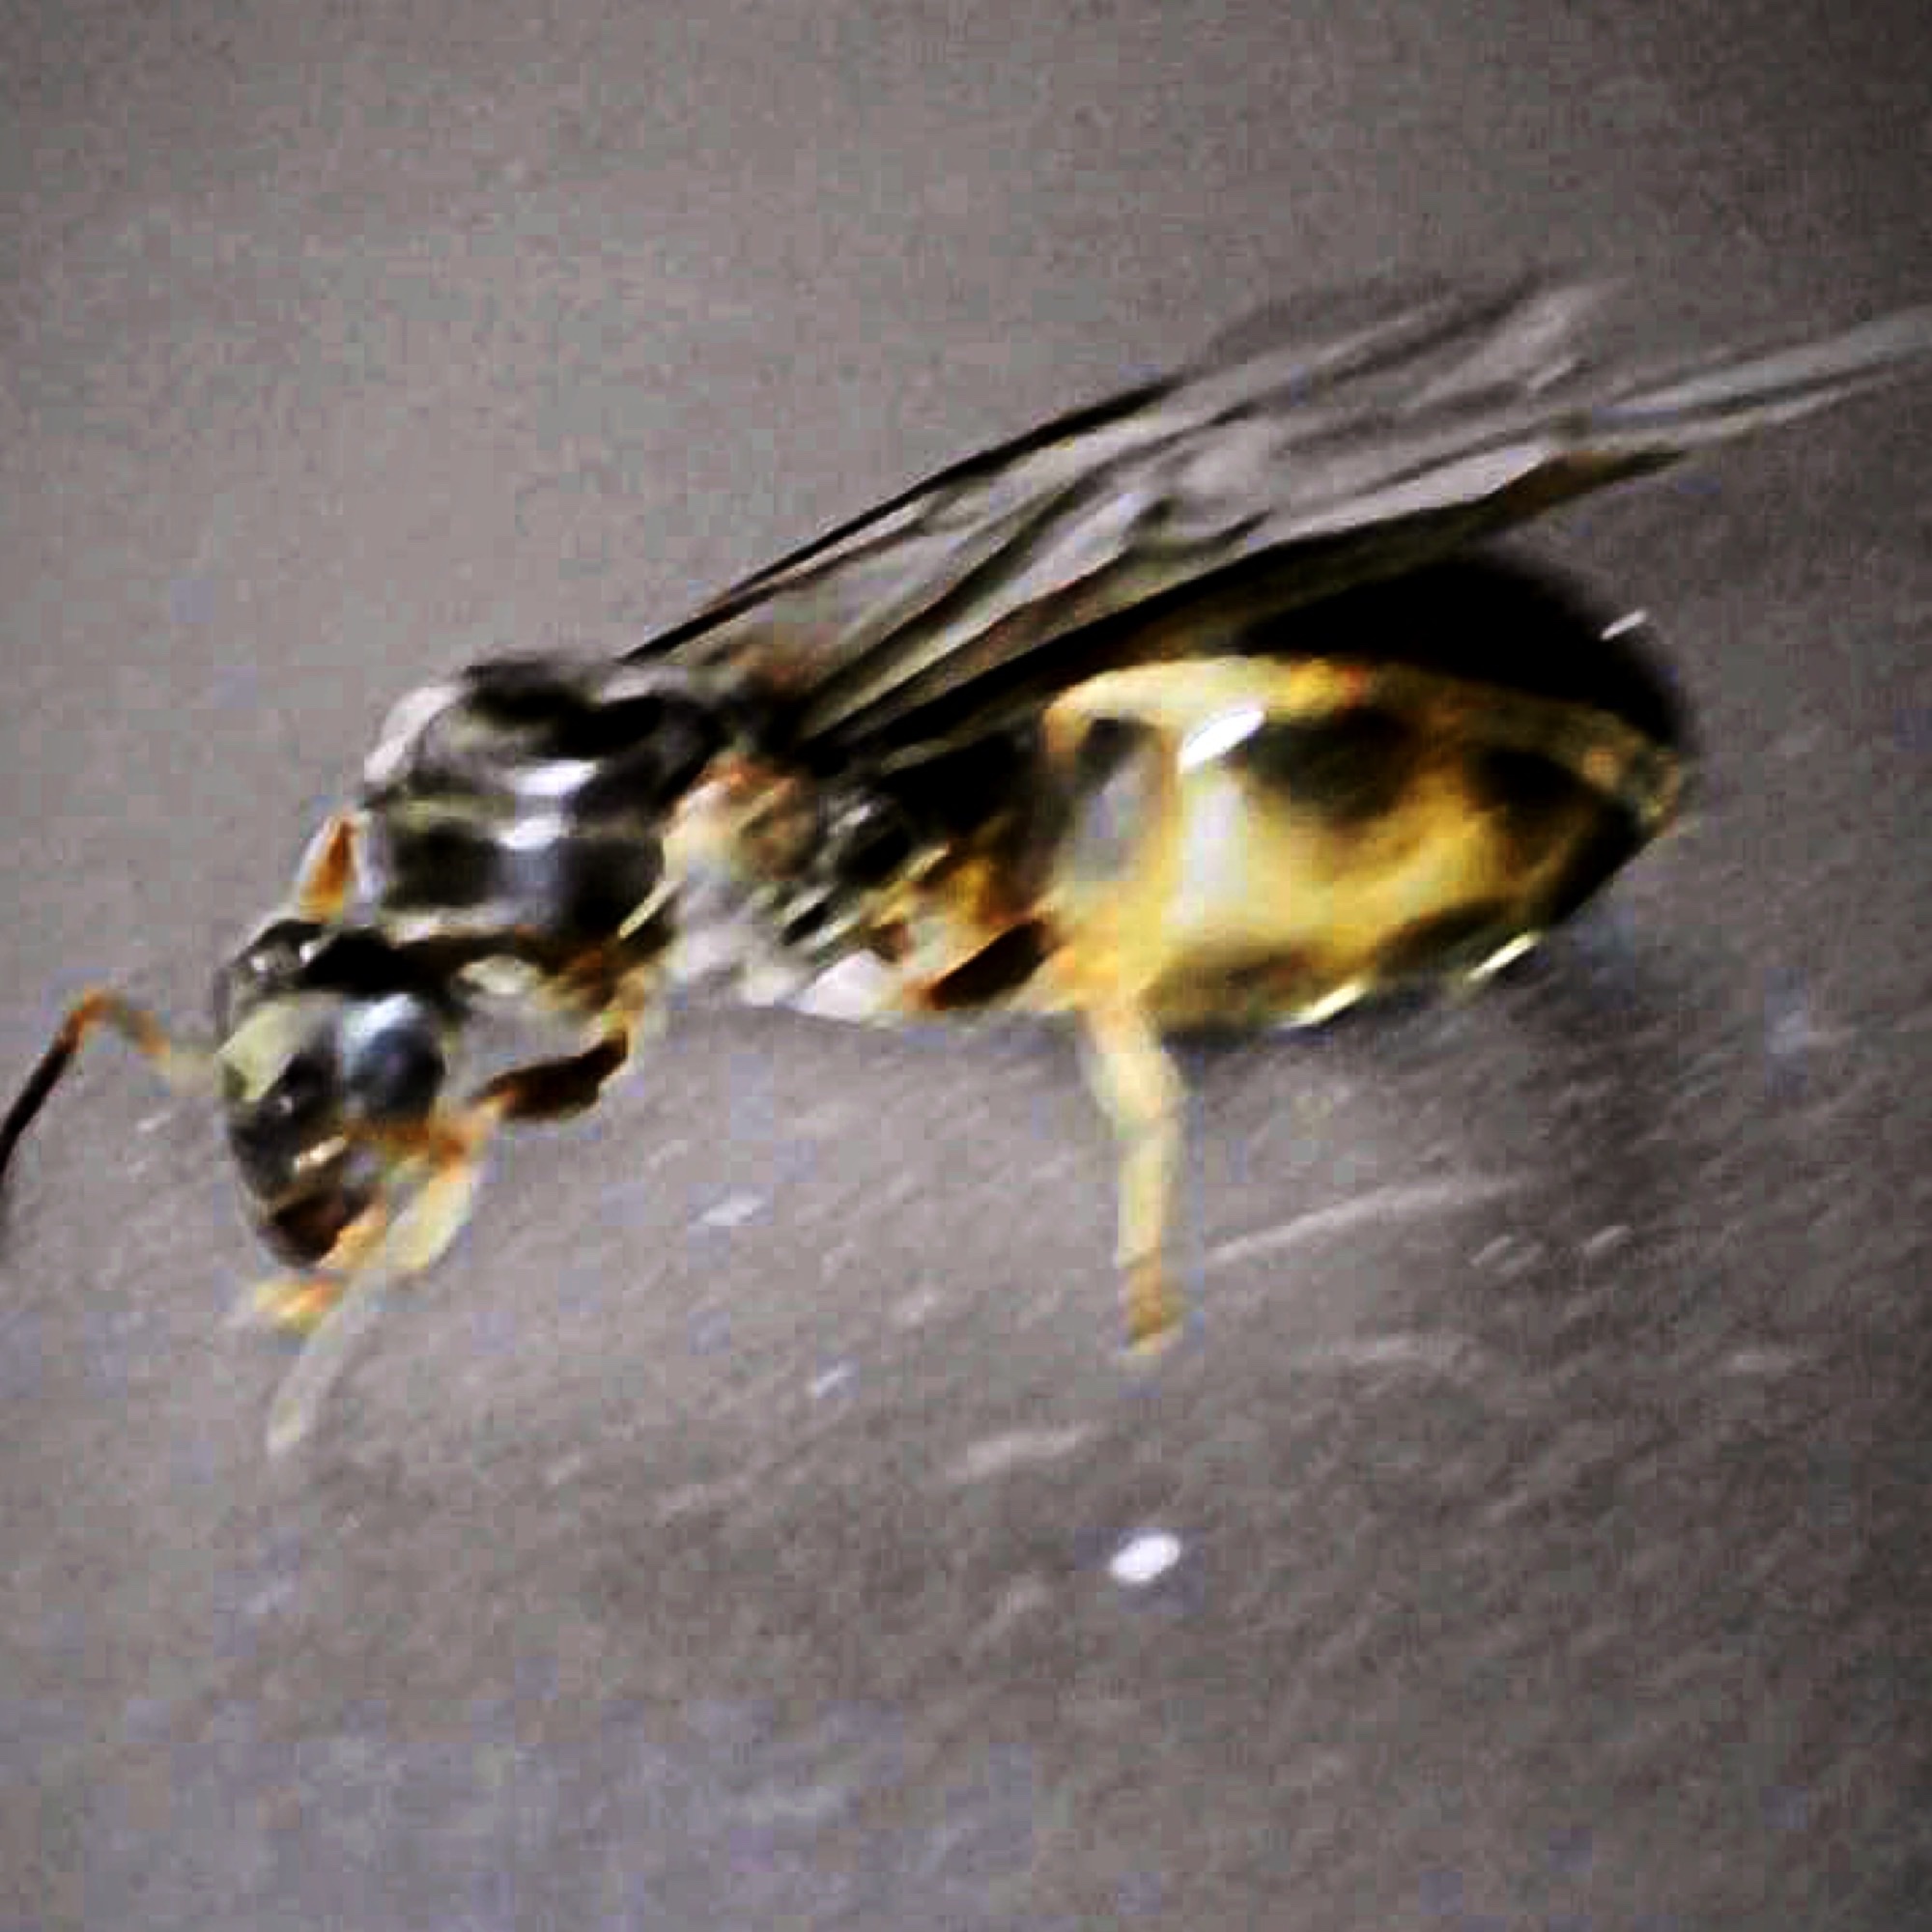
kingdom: Animalia
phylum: Arthropoda
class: Insecta
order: Hymenoptera
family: Formicidae
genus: Lasius
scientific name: Lasius americanus
